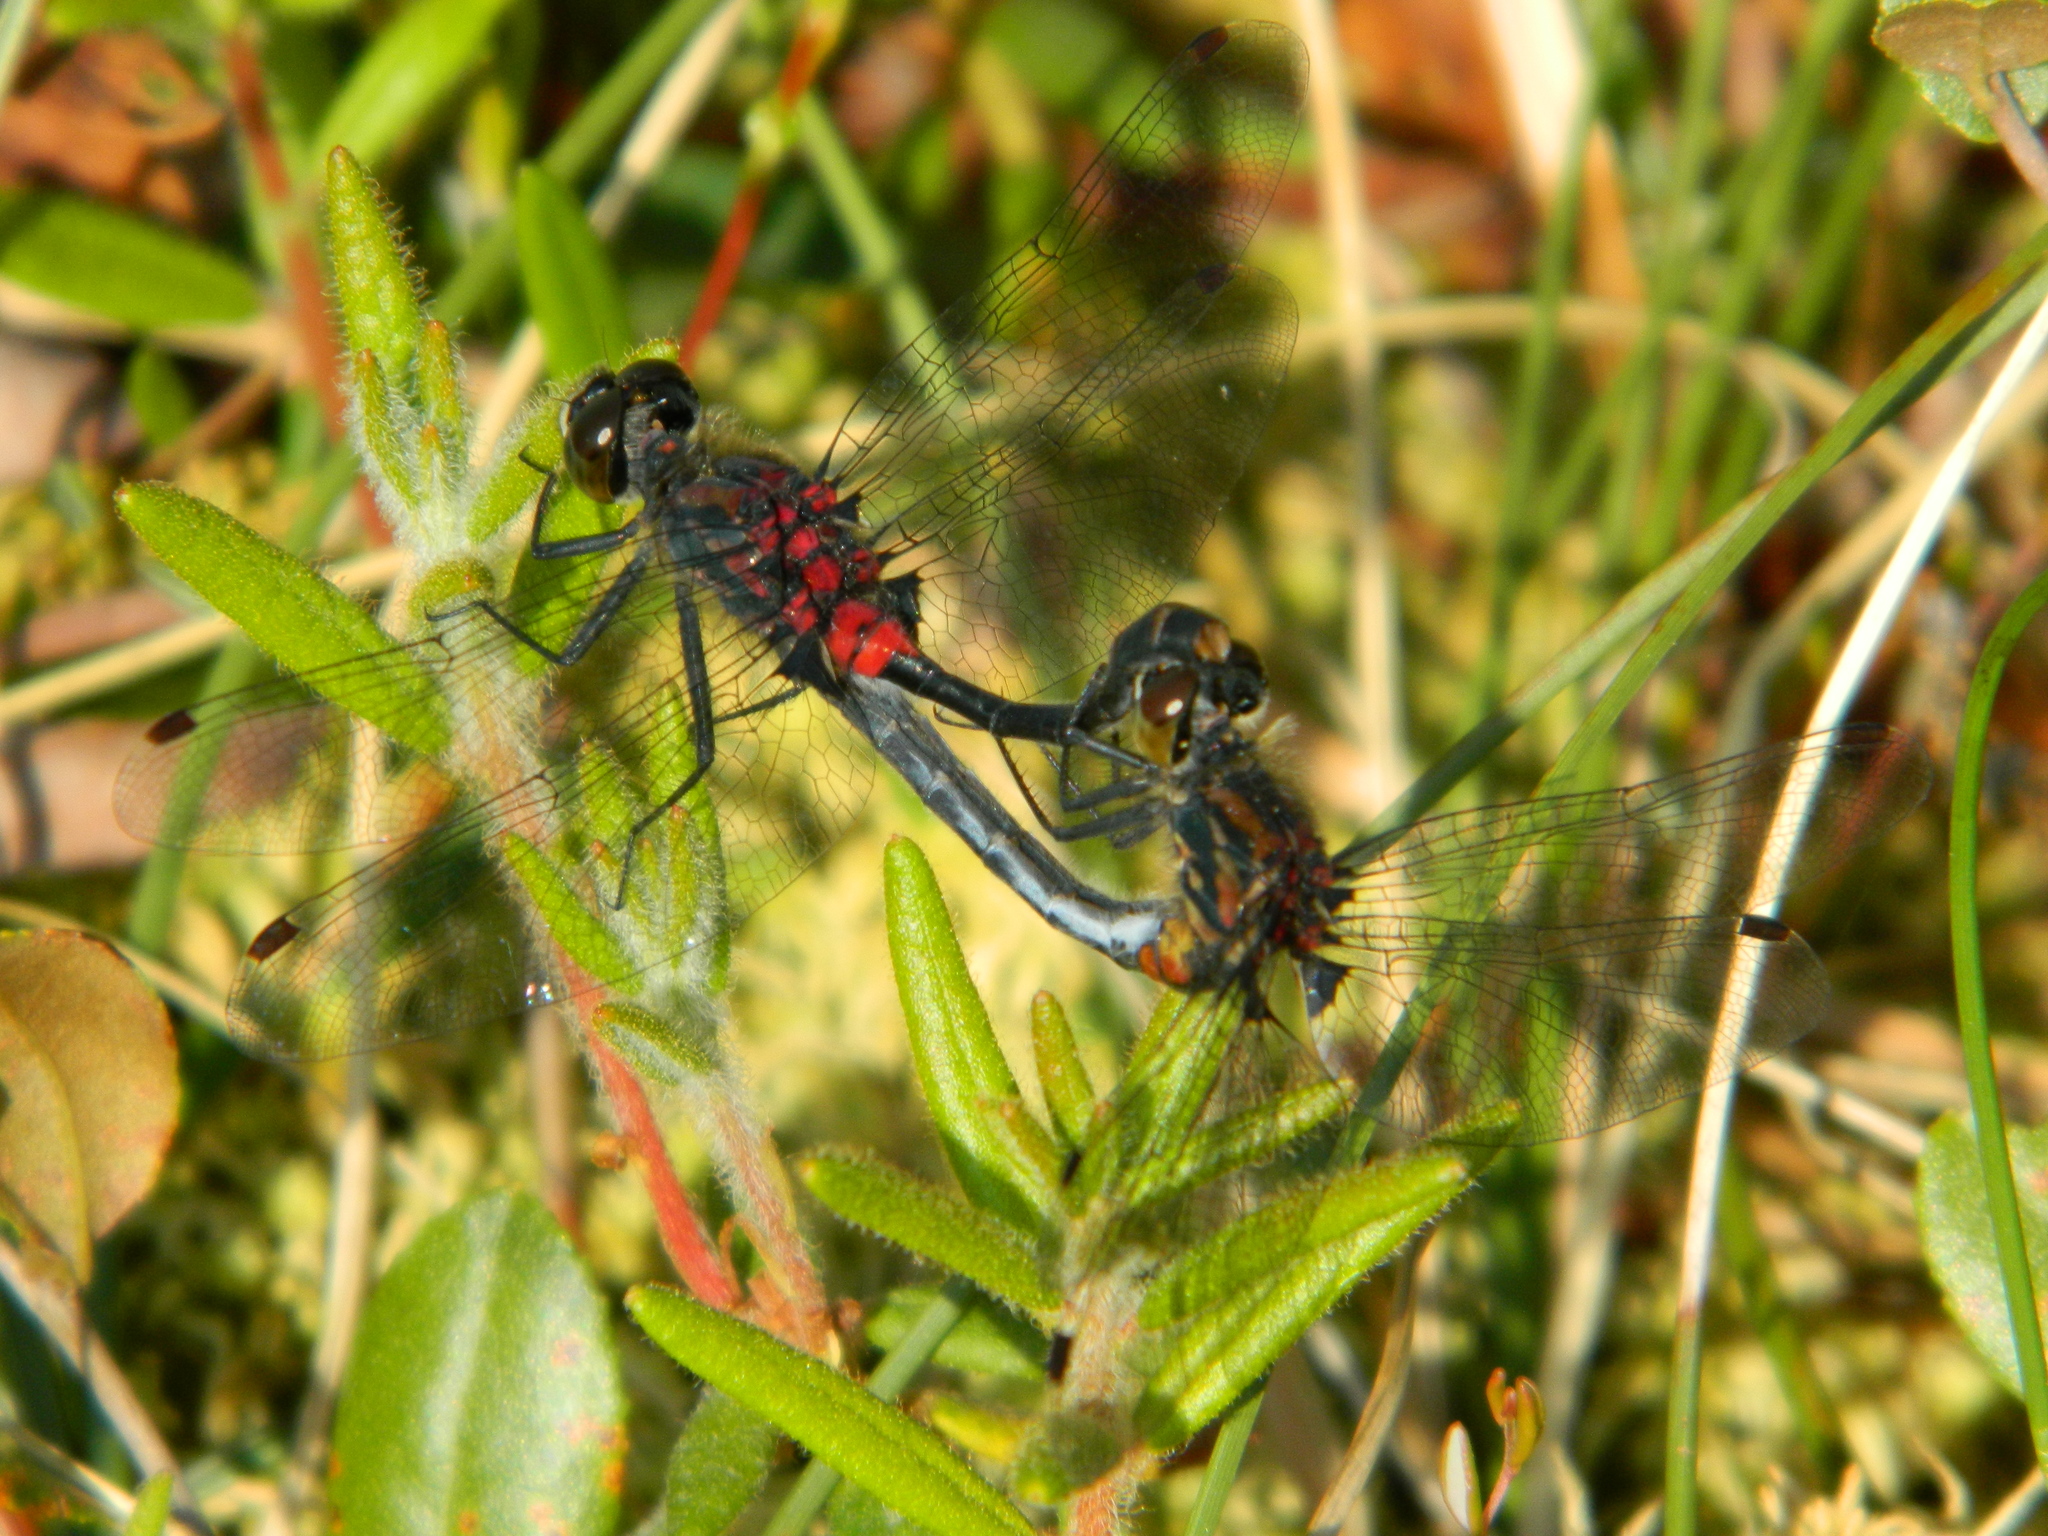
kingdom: Animalia
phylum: Arthropoda
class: Insecta
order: Odonata
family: Libellulidae
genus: Leucorrhinia
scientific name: Leucorrhinia glacialis
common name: Crimson-ringed whiteface
